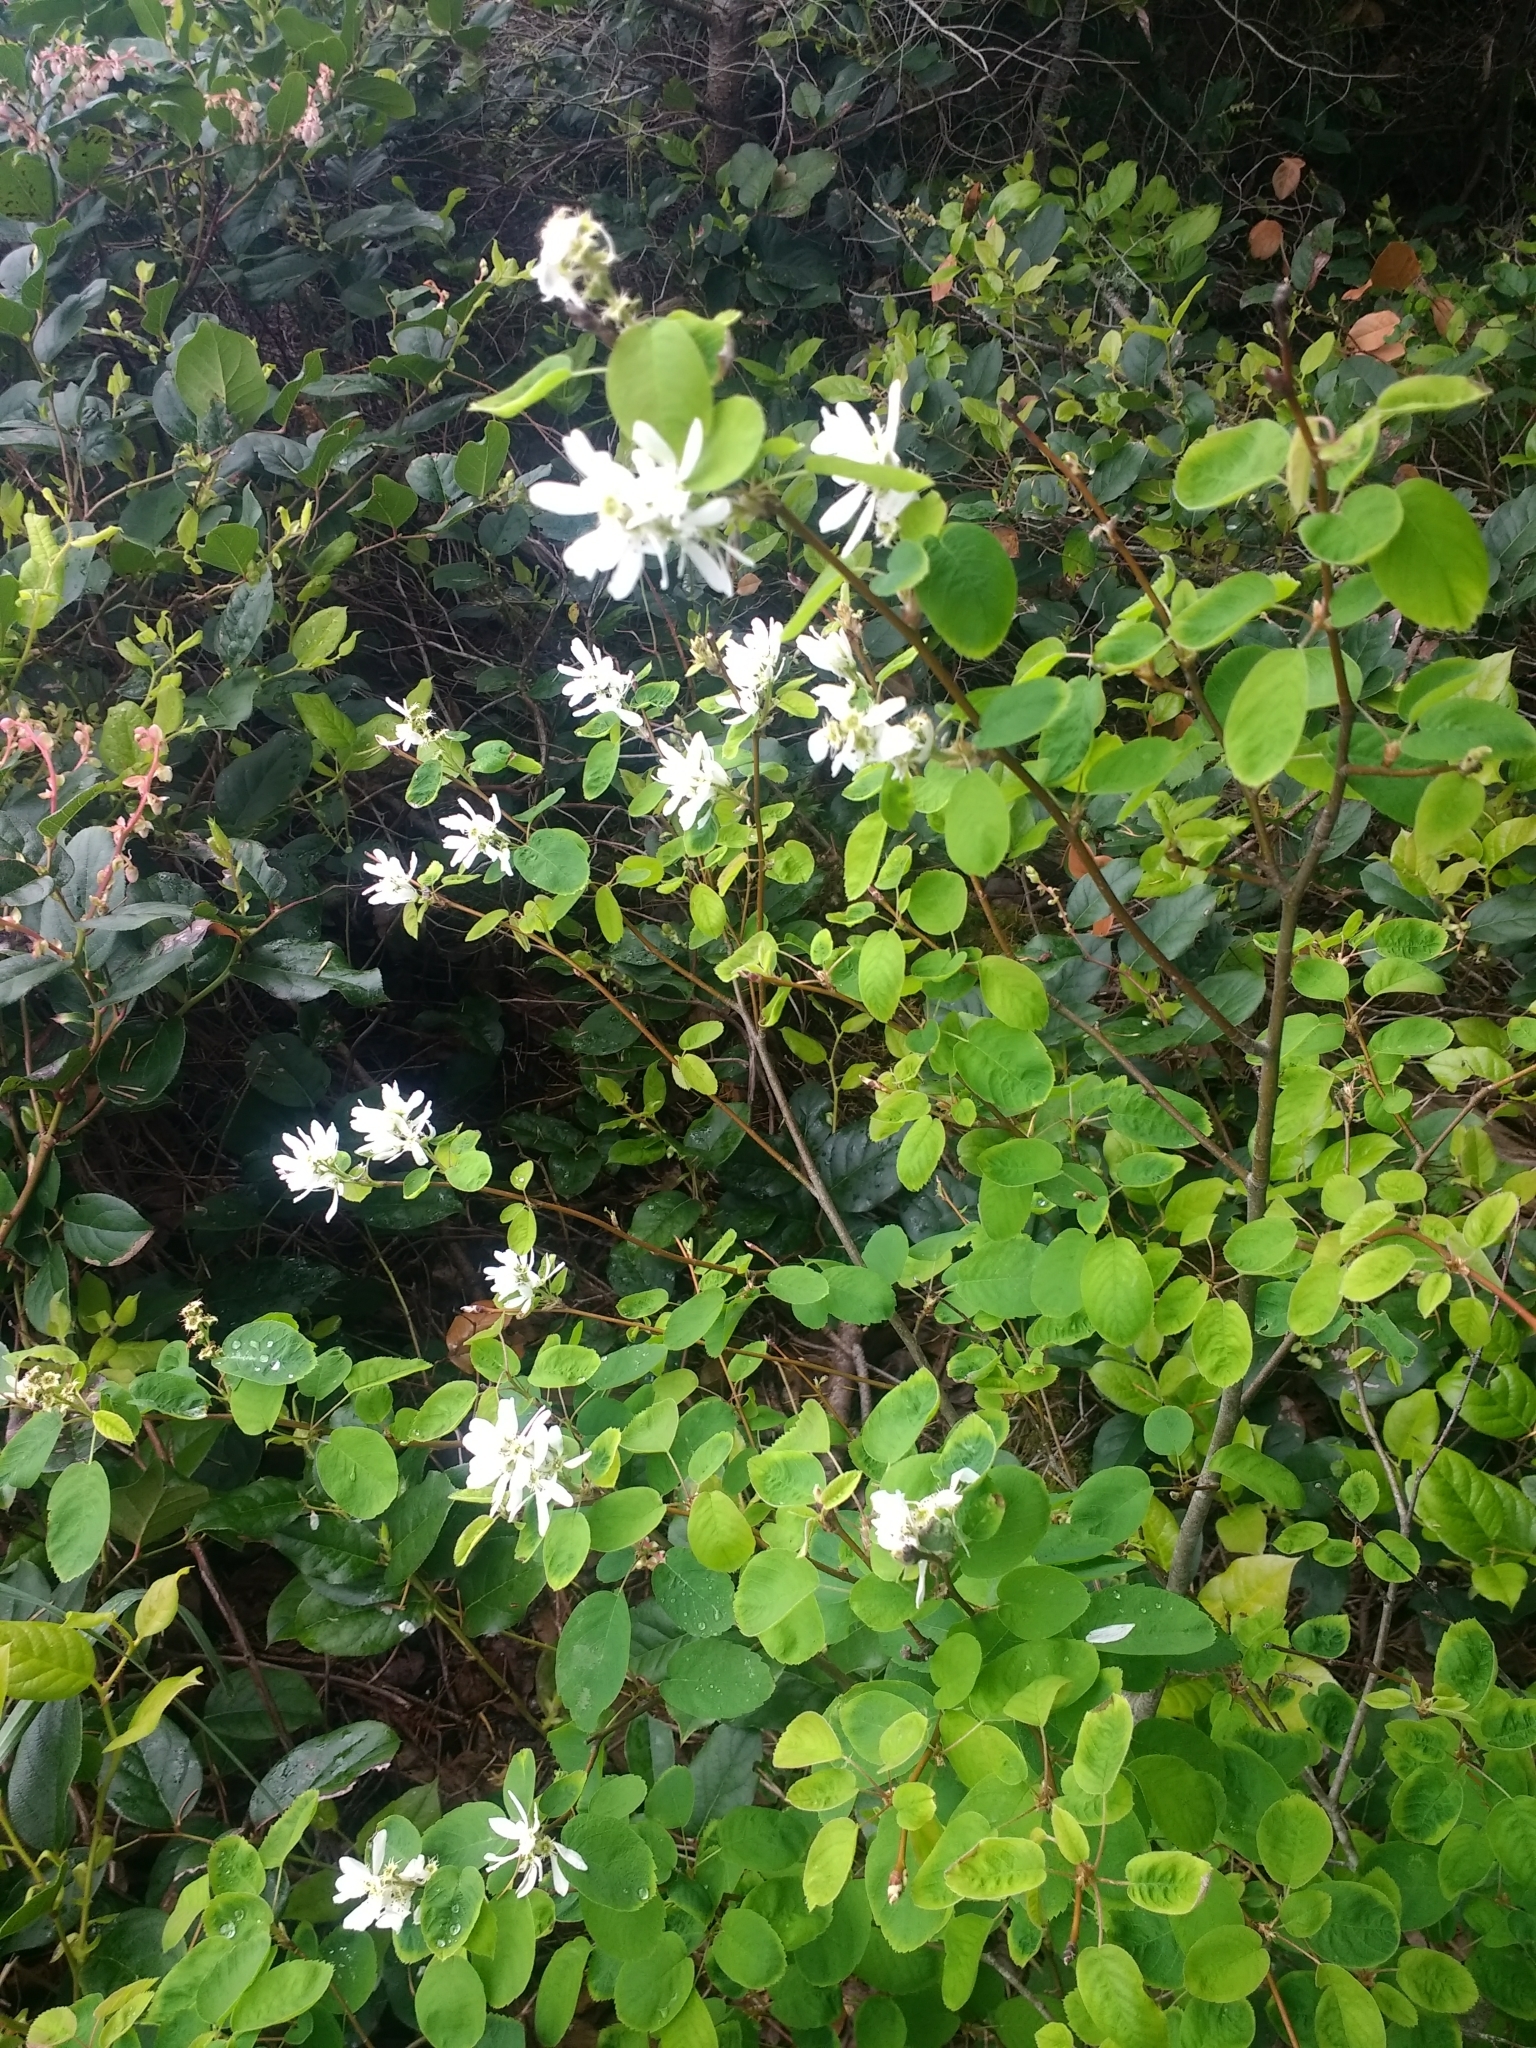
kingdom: Plantae
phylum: Tracheophyta
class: Magnoliopsida
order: Rosales
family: Rosaceae
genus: Amelanchier
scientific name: Amelanchier alnifolia
